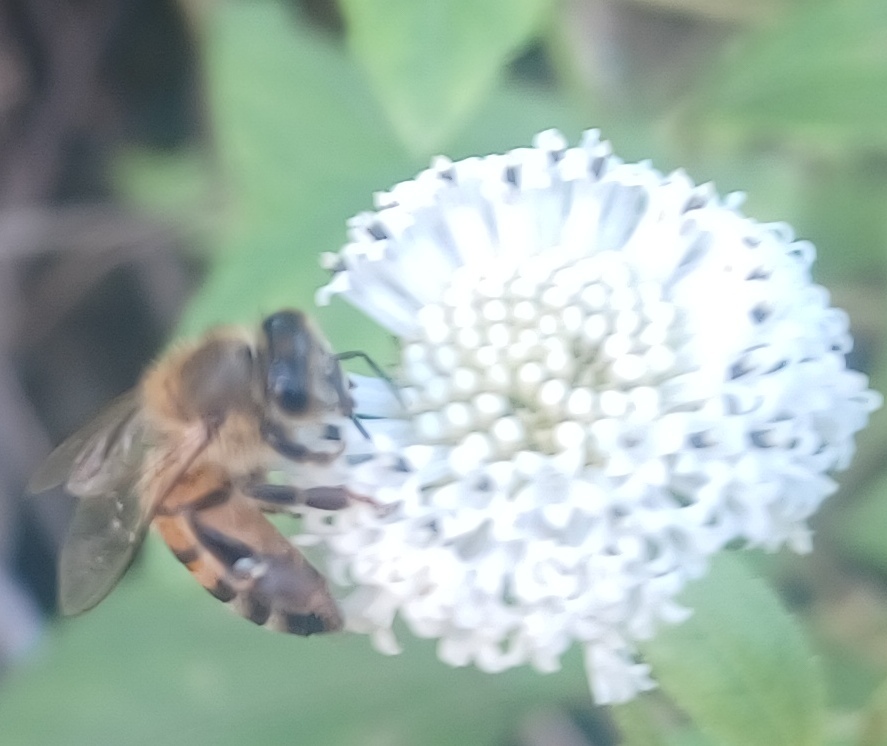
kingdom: Animalia
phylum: Arthropoda
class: Insecta
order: Hymenoptera
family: Apidae
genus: Apis
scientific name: Apis mellifera
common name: Honey bee
